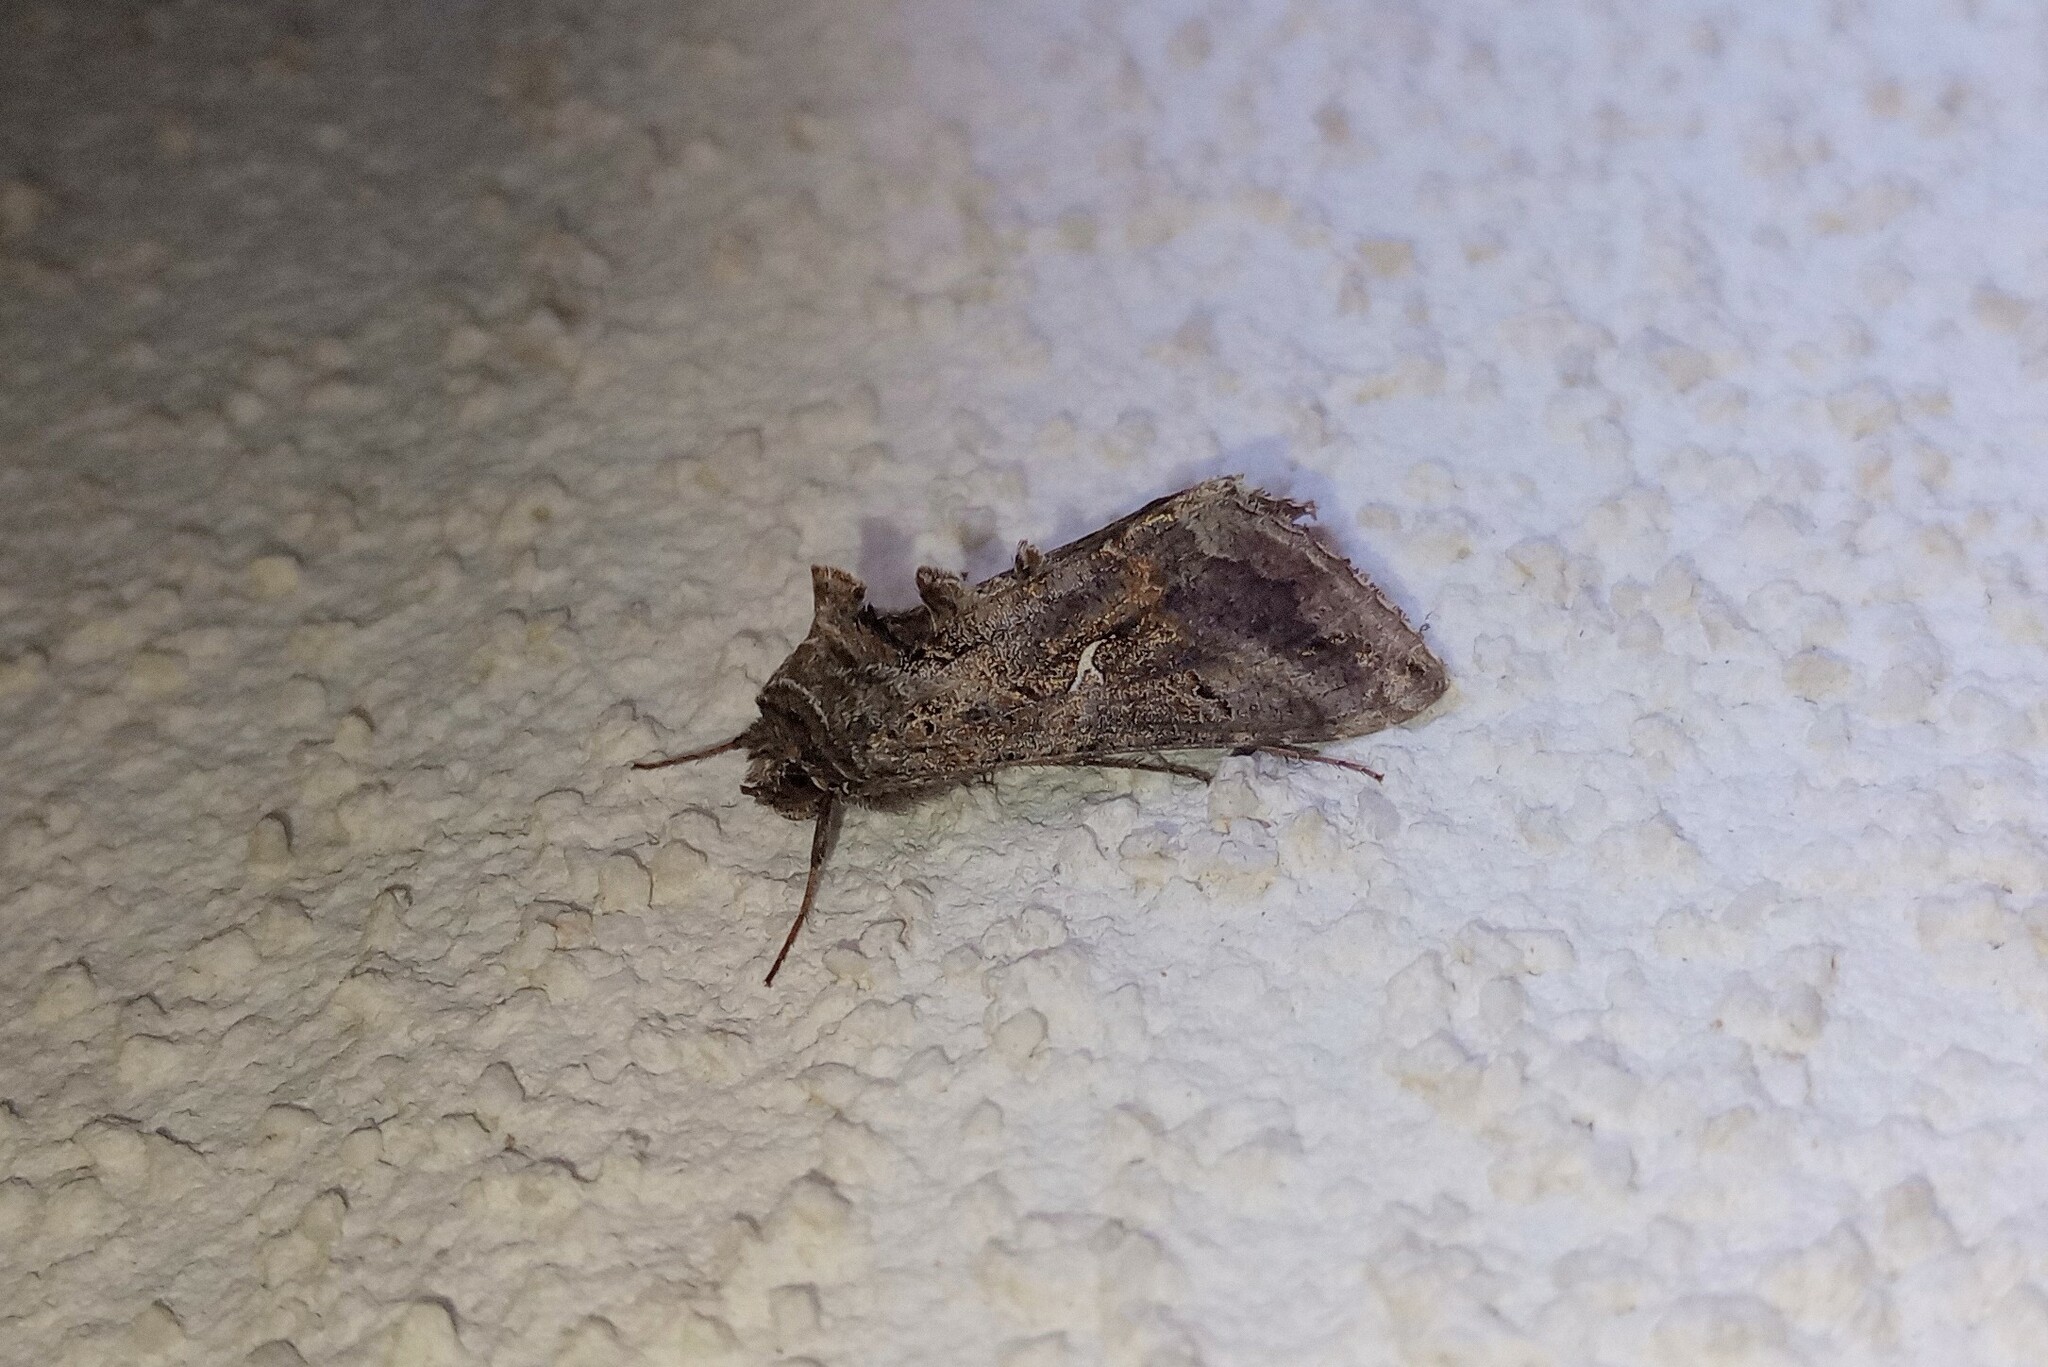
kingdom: Animalia
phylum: Arthropoda
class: Insecta
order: Lepidoptera
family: Noctuidae
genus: Autographa
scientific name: Autographa gamma
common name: Silver y
